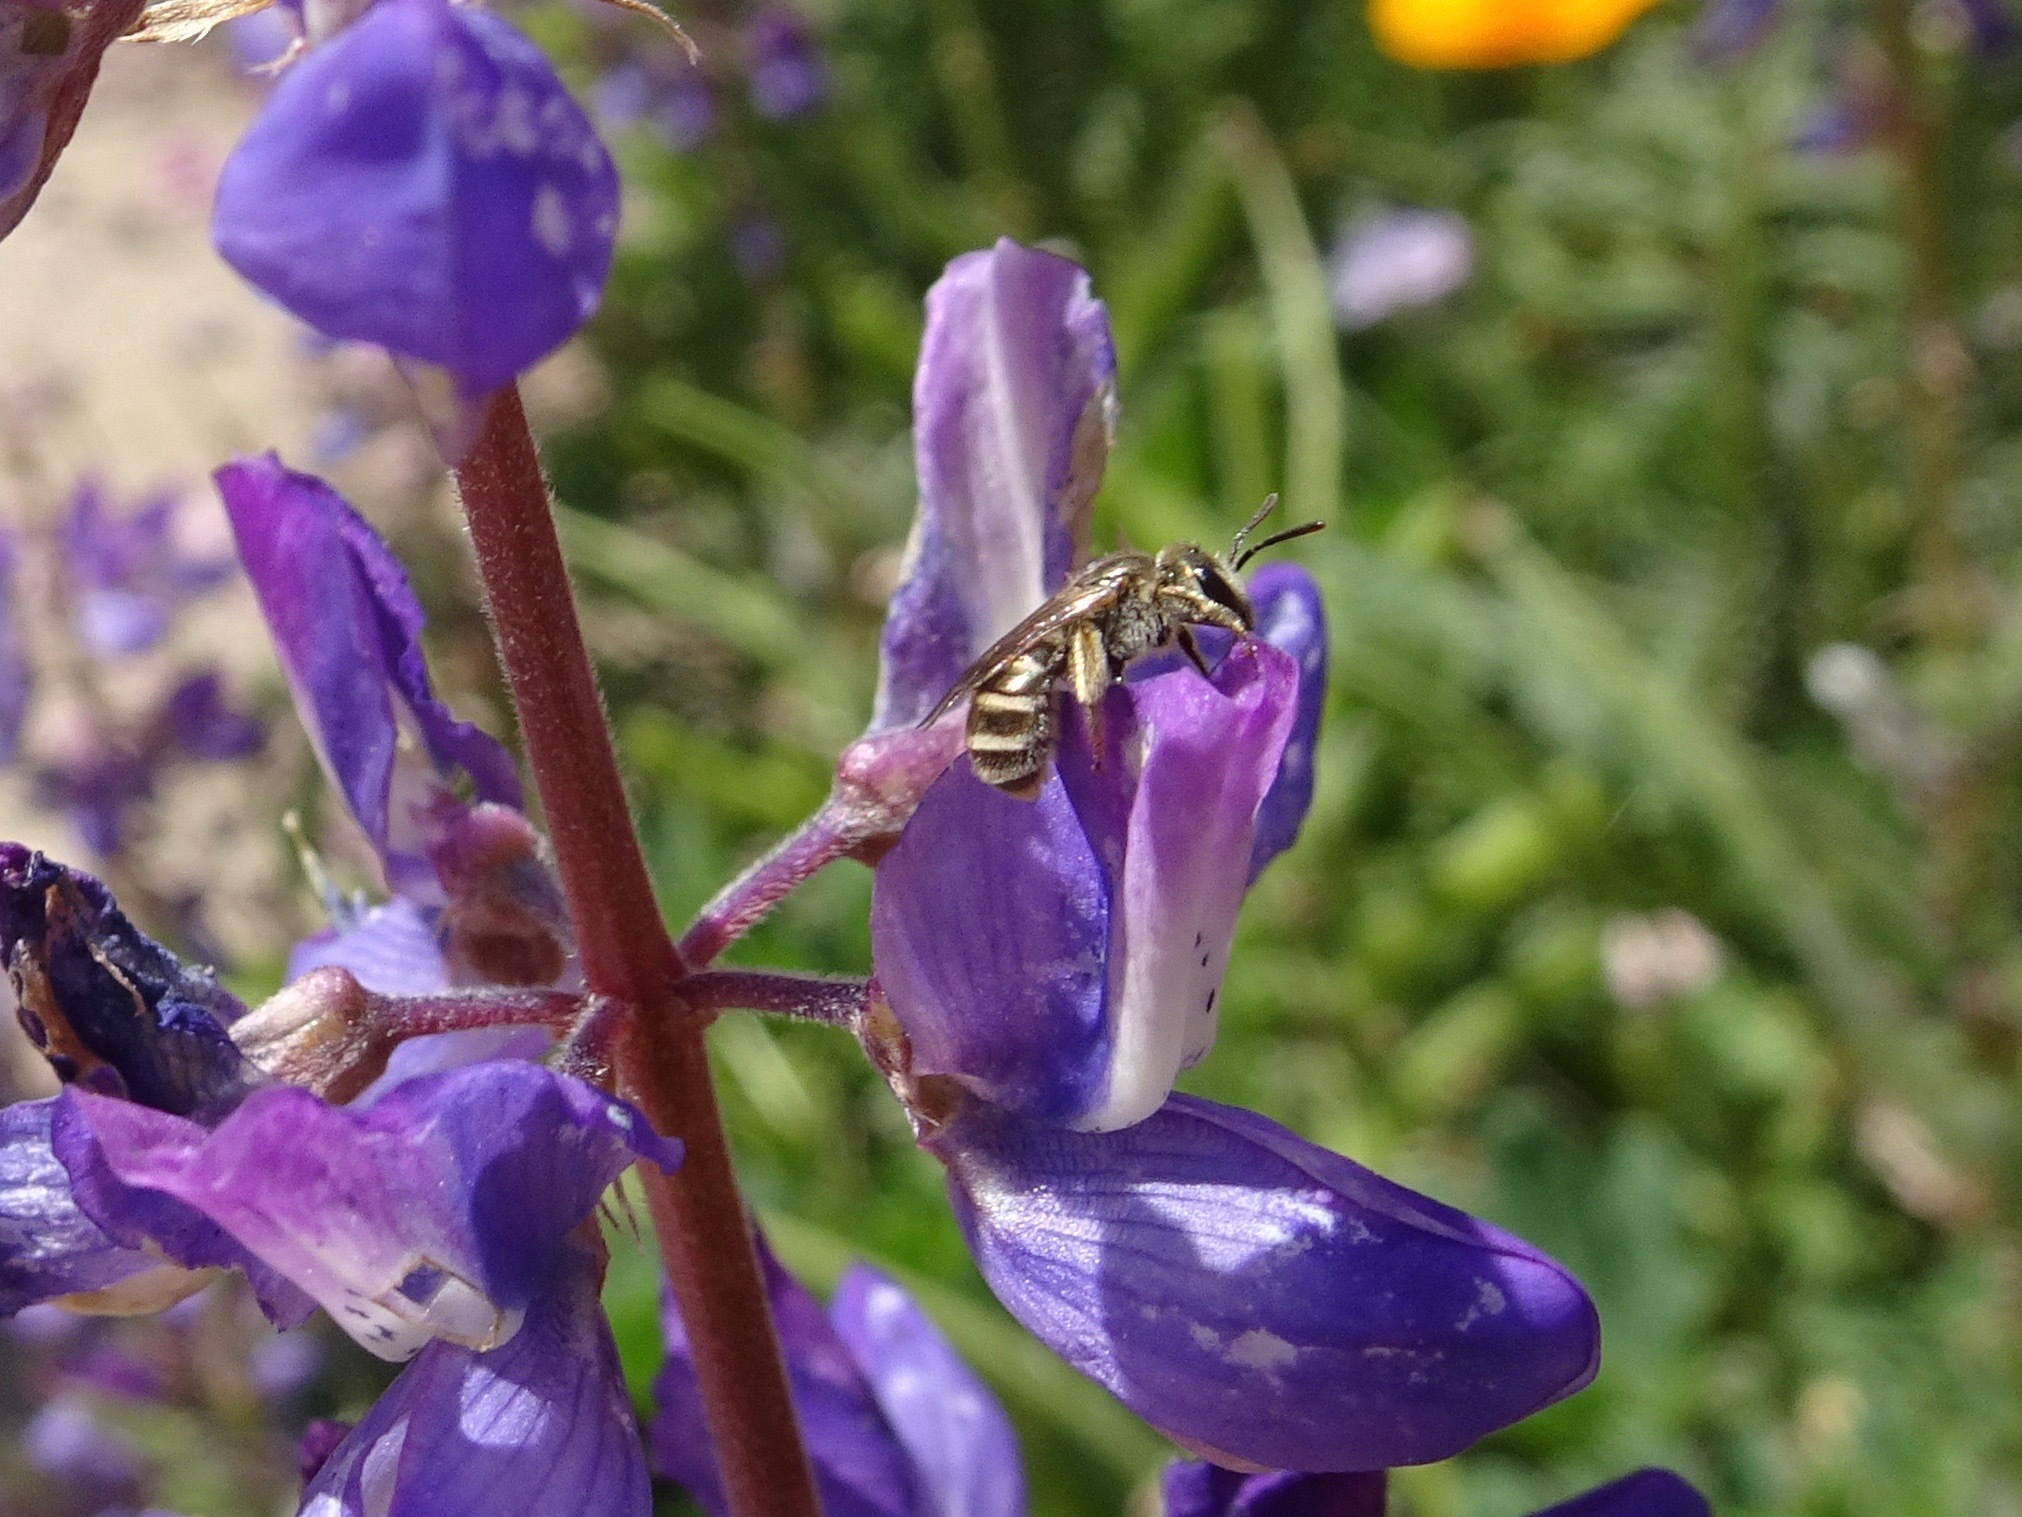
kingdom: Animalia
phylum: Arthropoda
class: Insecta
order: Hymenoptera
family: Halictidae
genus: Halictus
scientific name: Halictus tripartitus
